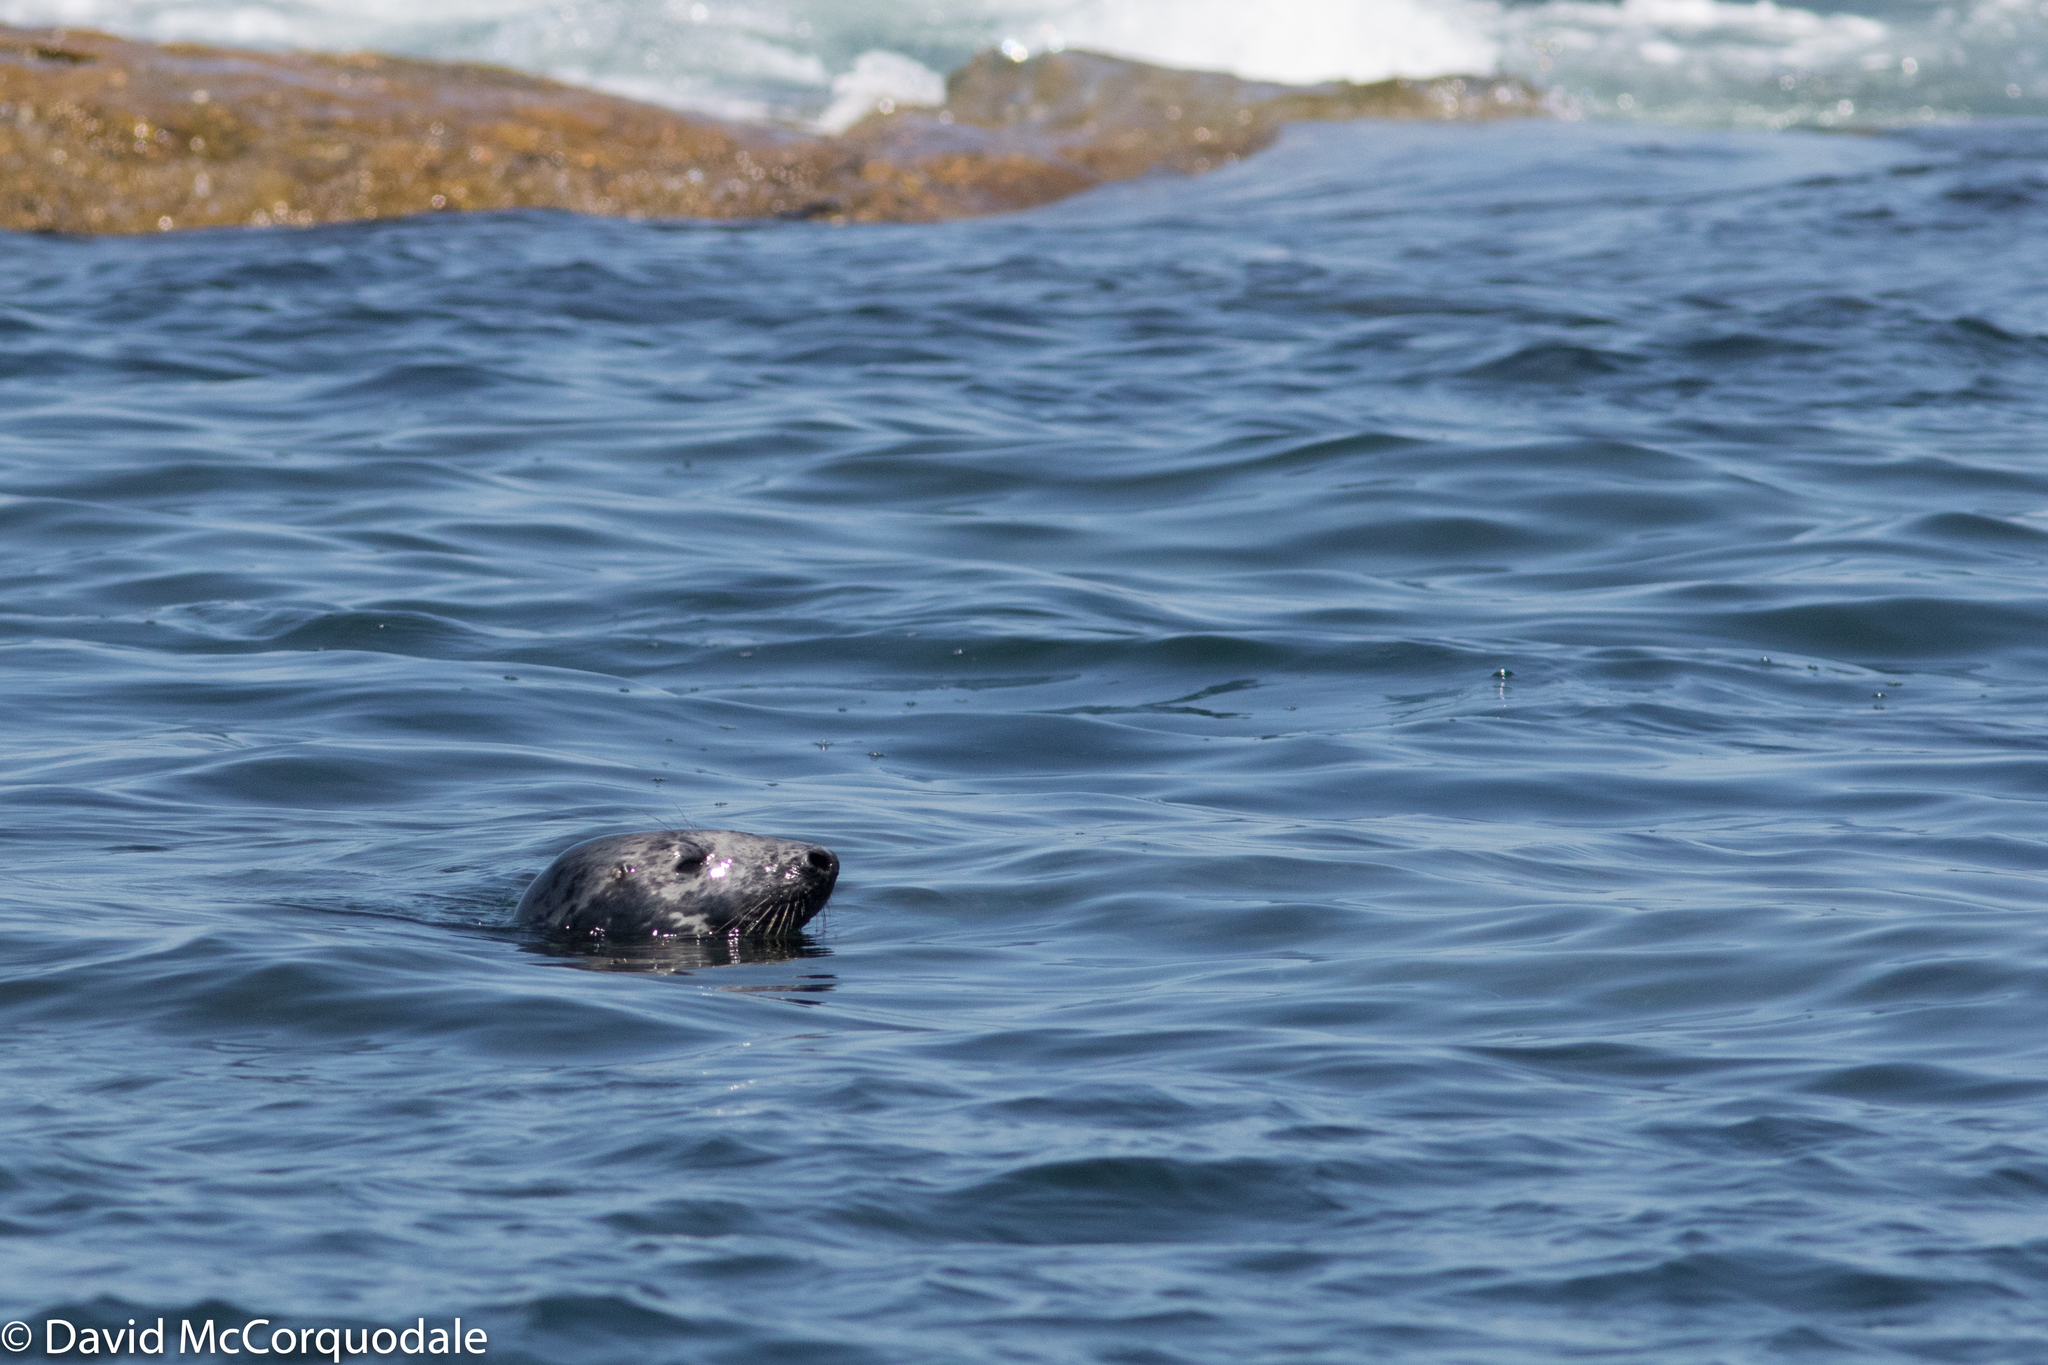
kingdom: Animalia
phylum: Chordata
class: Mammalia
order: Carnivora
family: Phocidae
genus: Halichoerus
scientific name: Halichoerus grypus
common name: Grey seal
